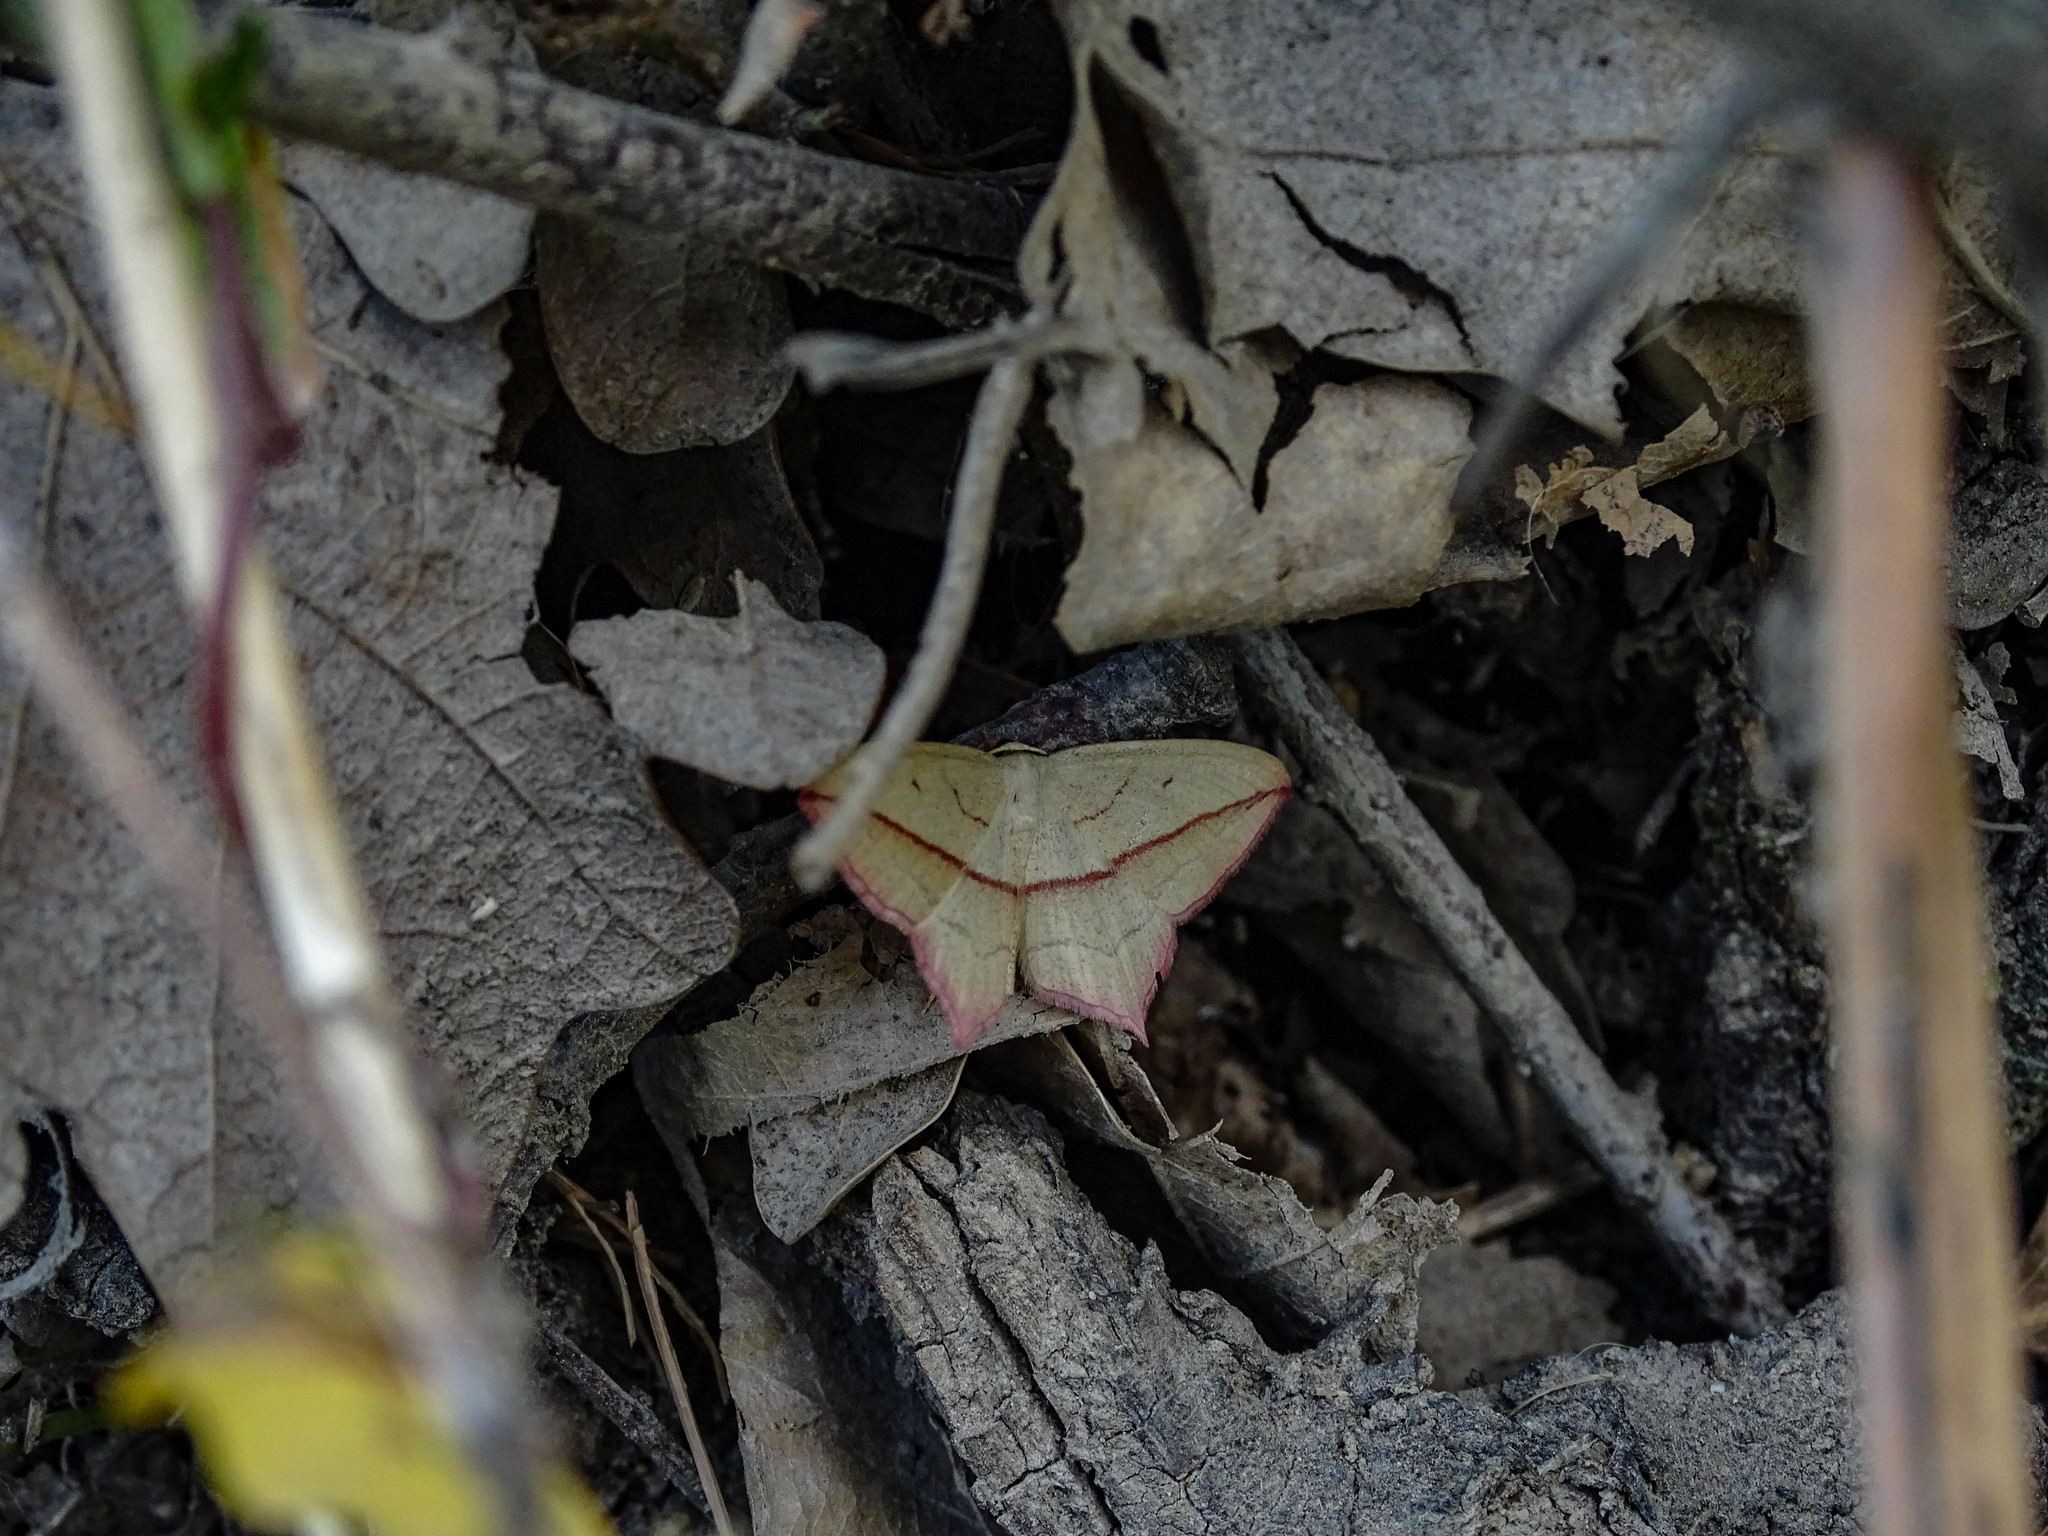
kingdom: Animalia
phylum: Arthropoda
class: Insecta
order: Lepidoptera
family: Geometridae
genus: Timandra
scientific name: Timandra comae
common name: Blood-vein
